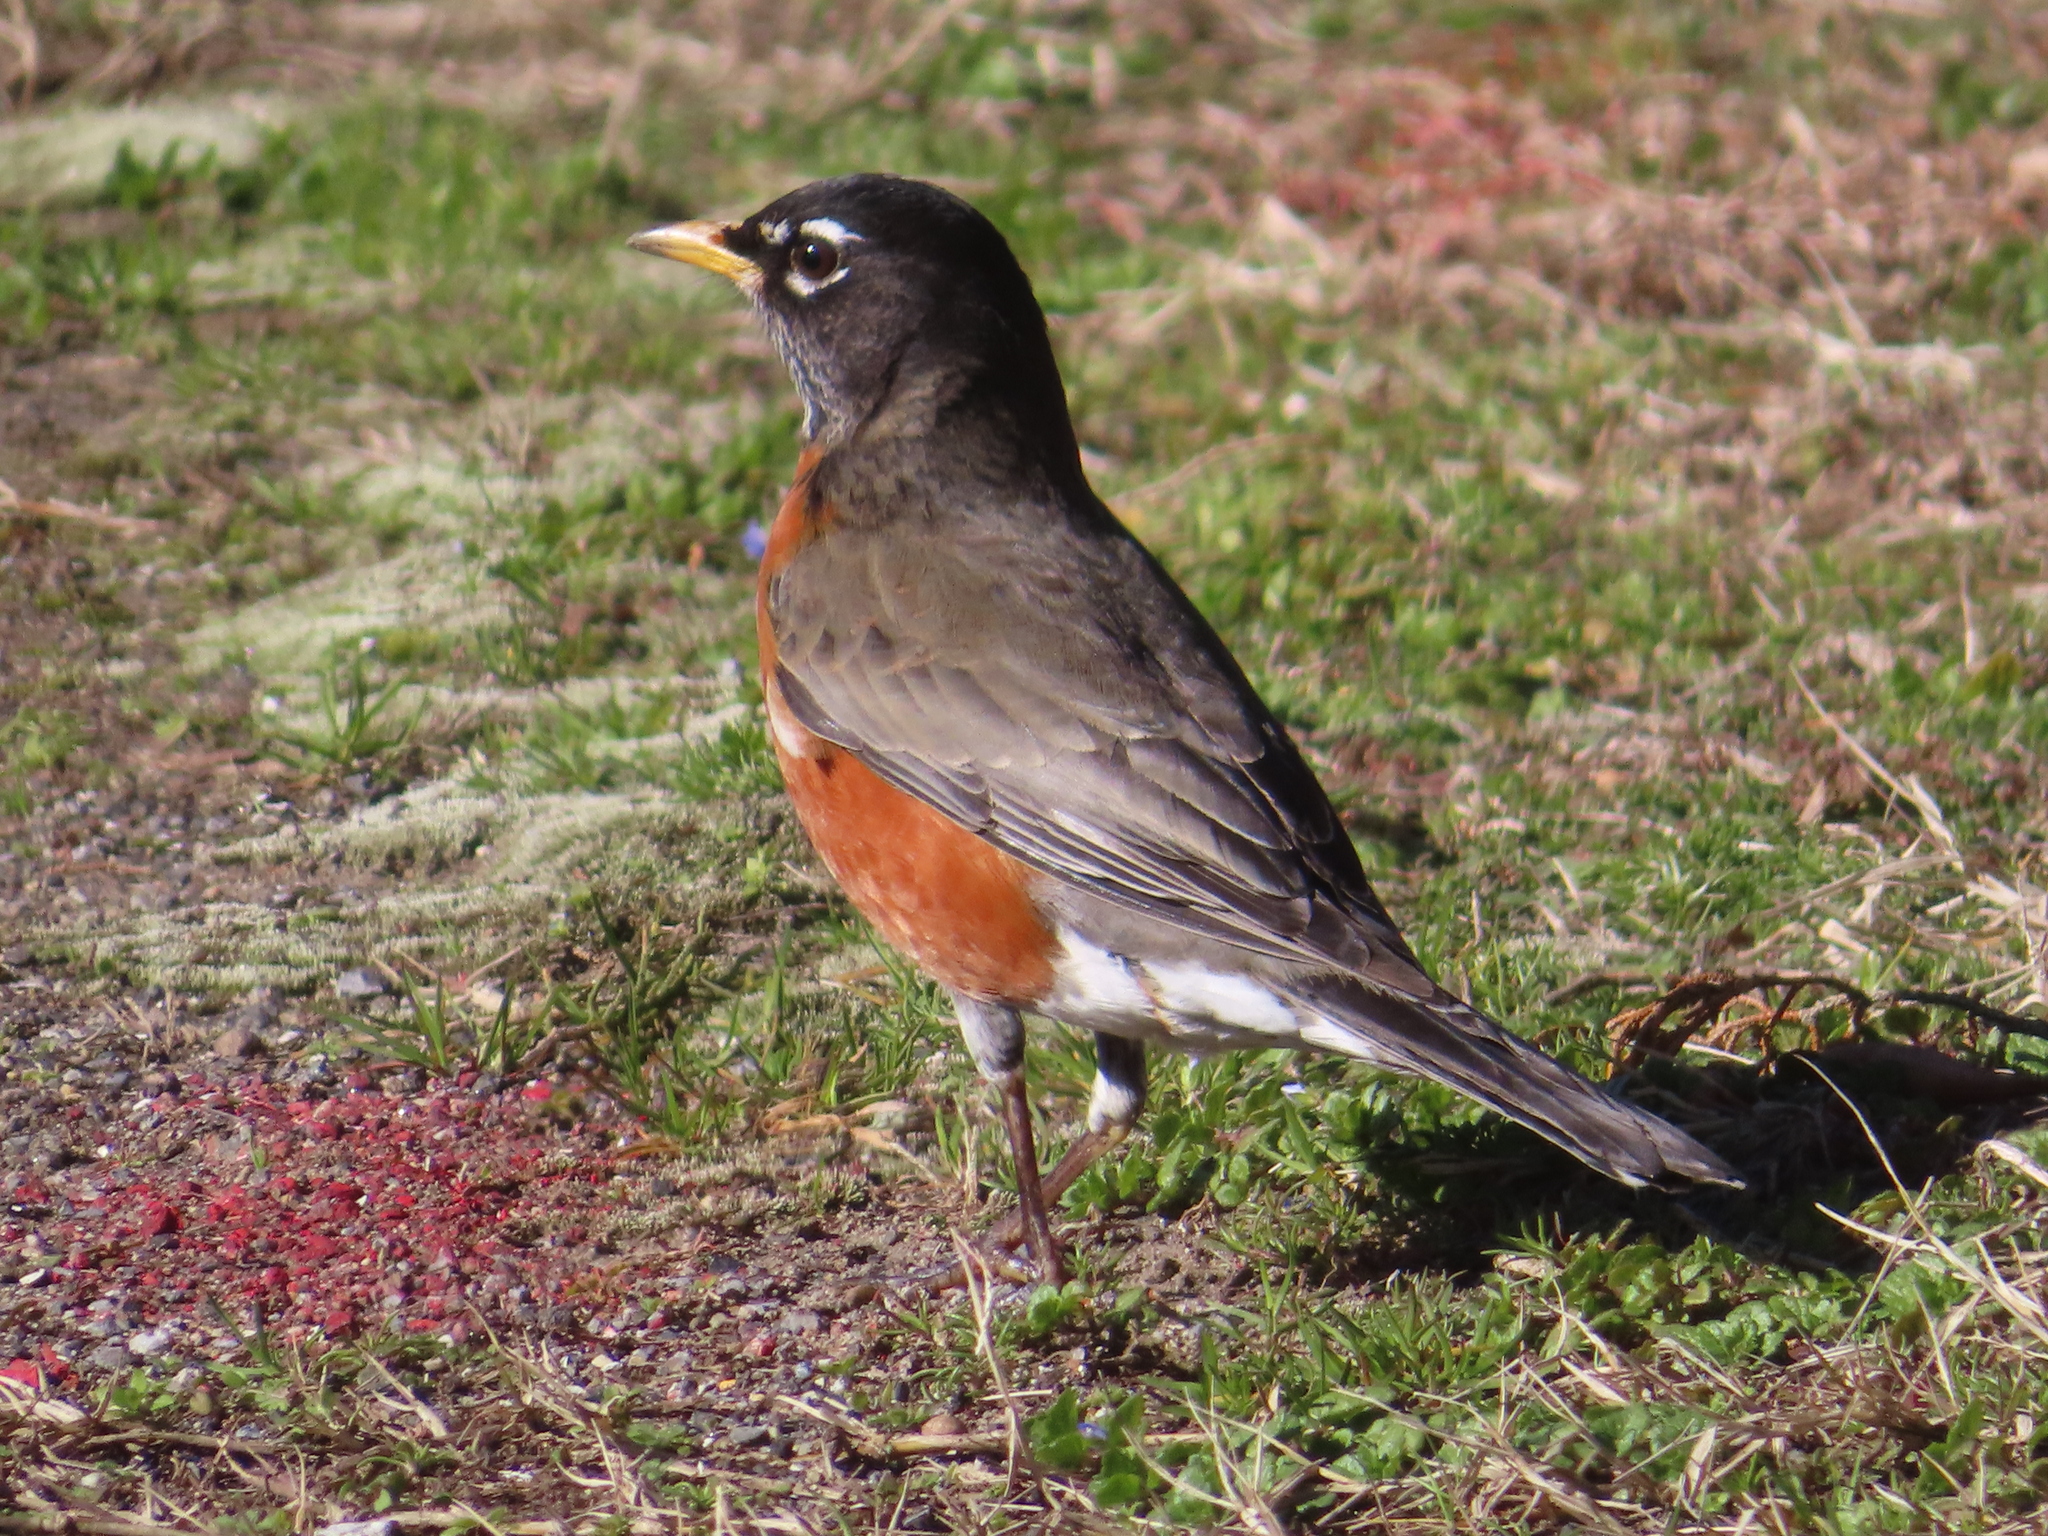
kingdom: Animalia
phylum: Chordata
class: Aves
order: Passeriformes
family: Turdidae
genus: Turdus
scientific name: Turdus migratorius
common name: American robin
